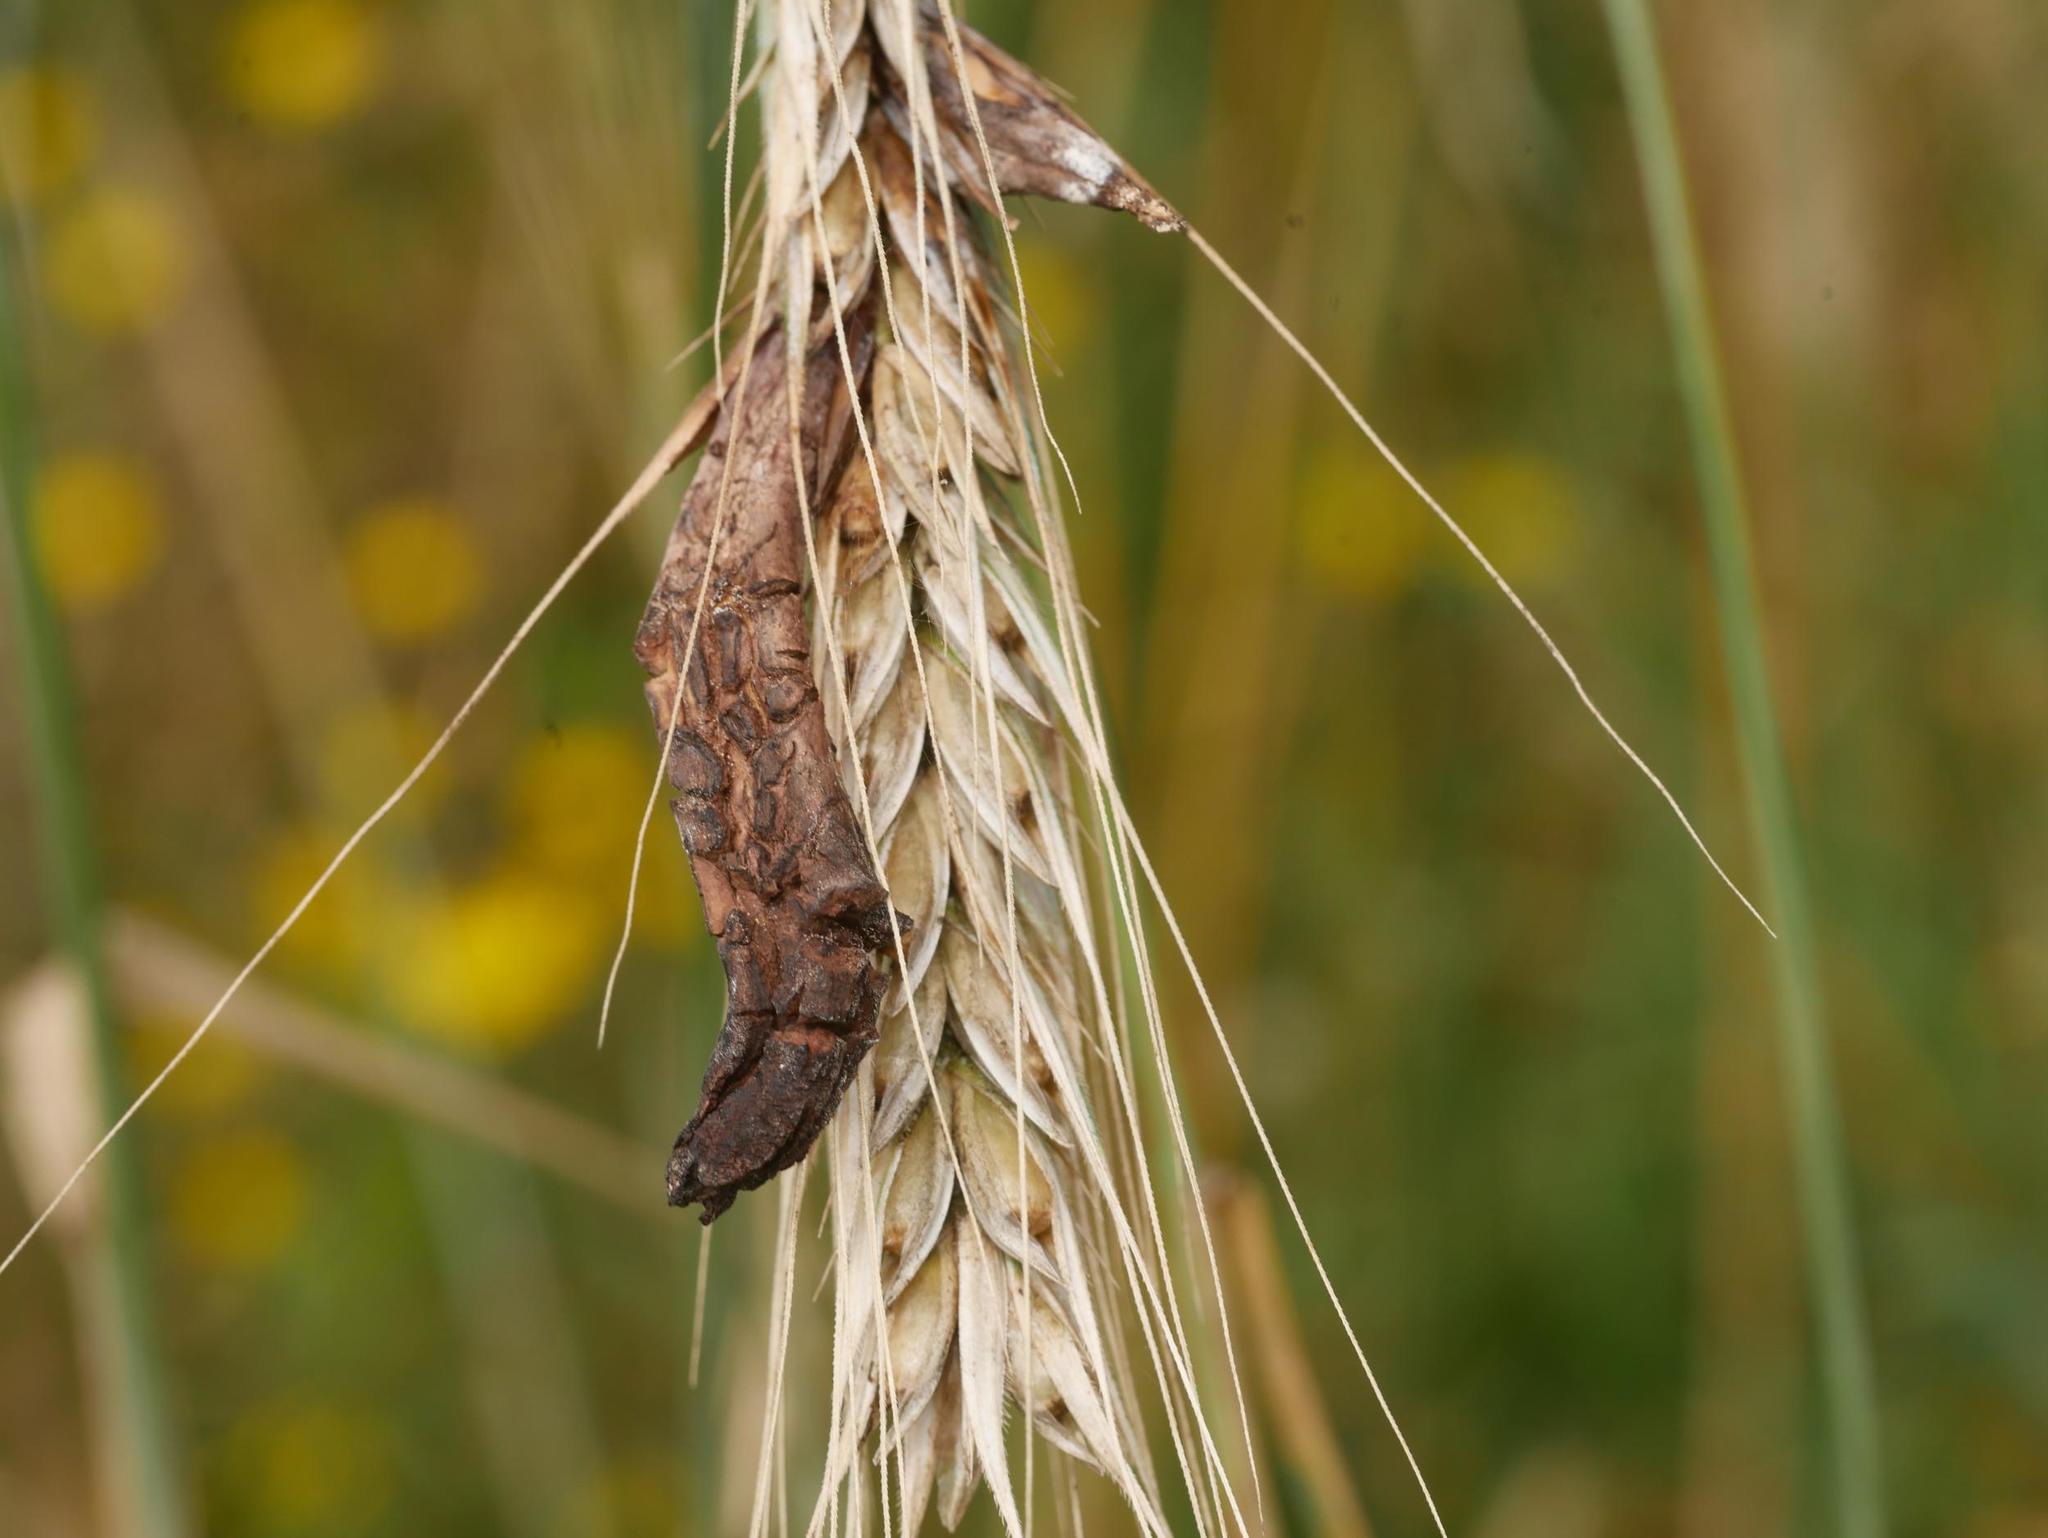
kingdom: Fungi
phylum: Ascomycota
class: Sordariomycetes
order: Hypocreales
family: Clavicipitaceae
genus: Claviceps
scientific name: Claviceps purpurea
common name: Rye ergot
